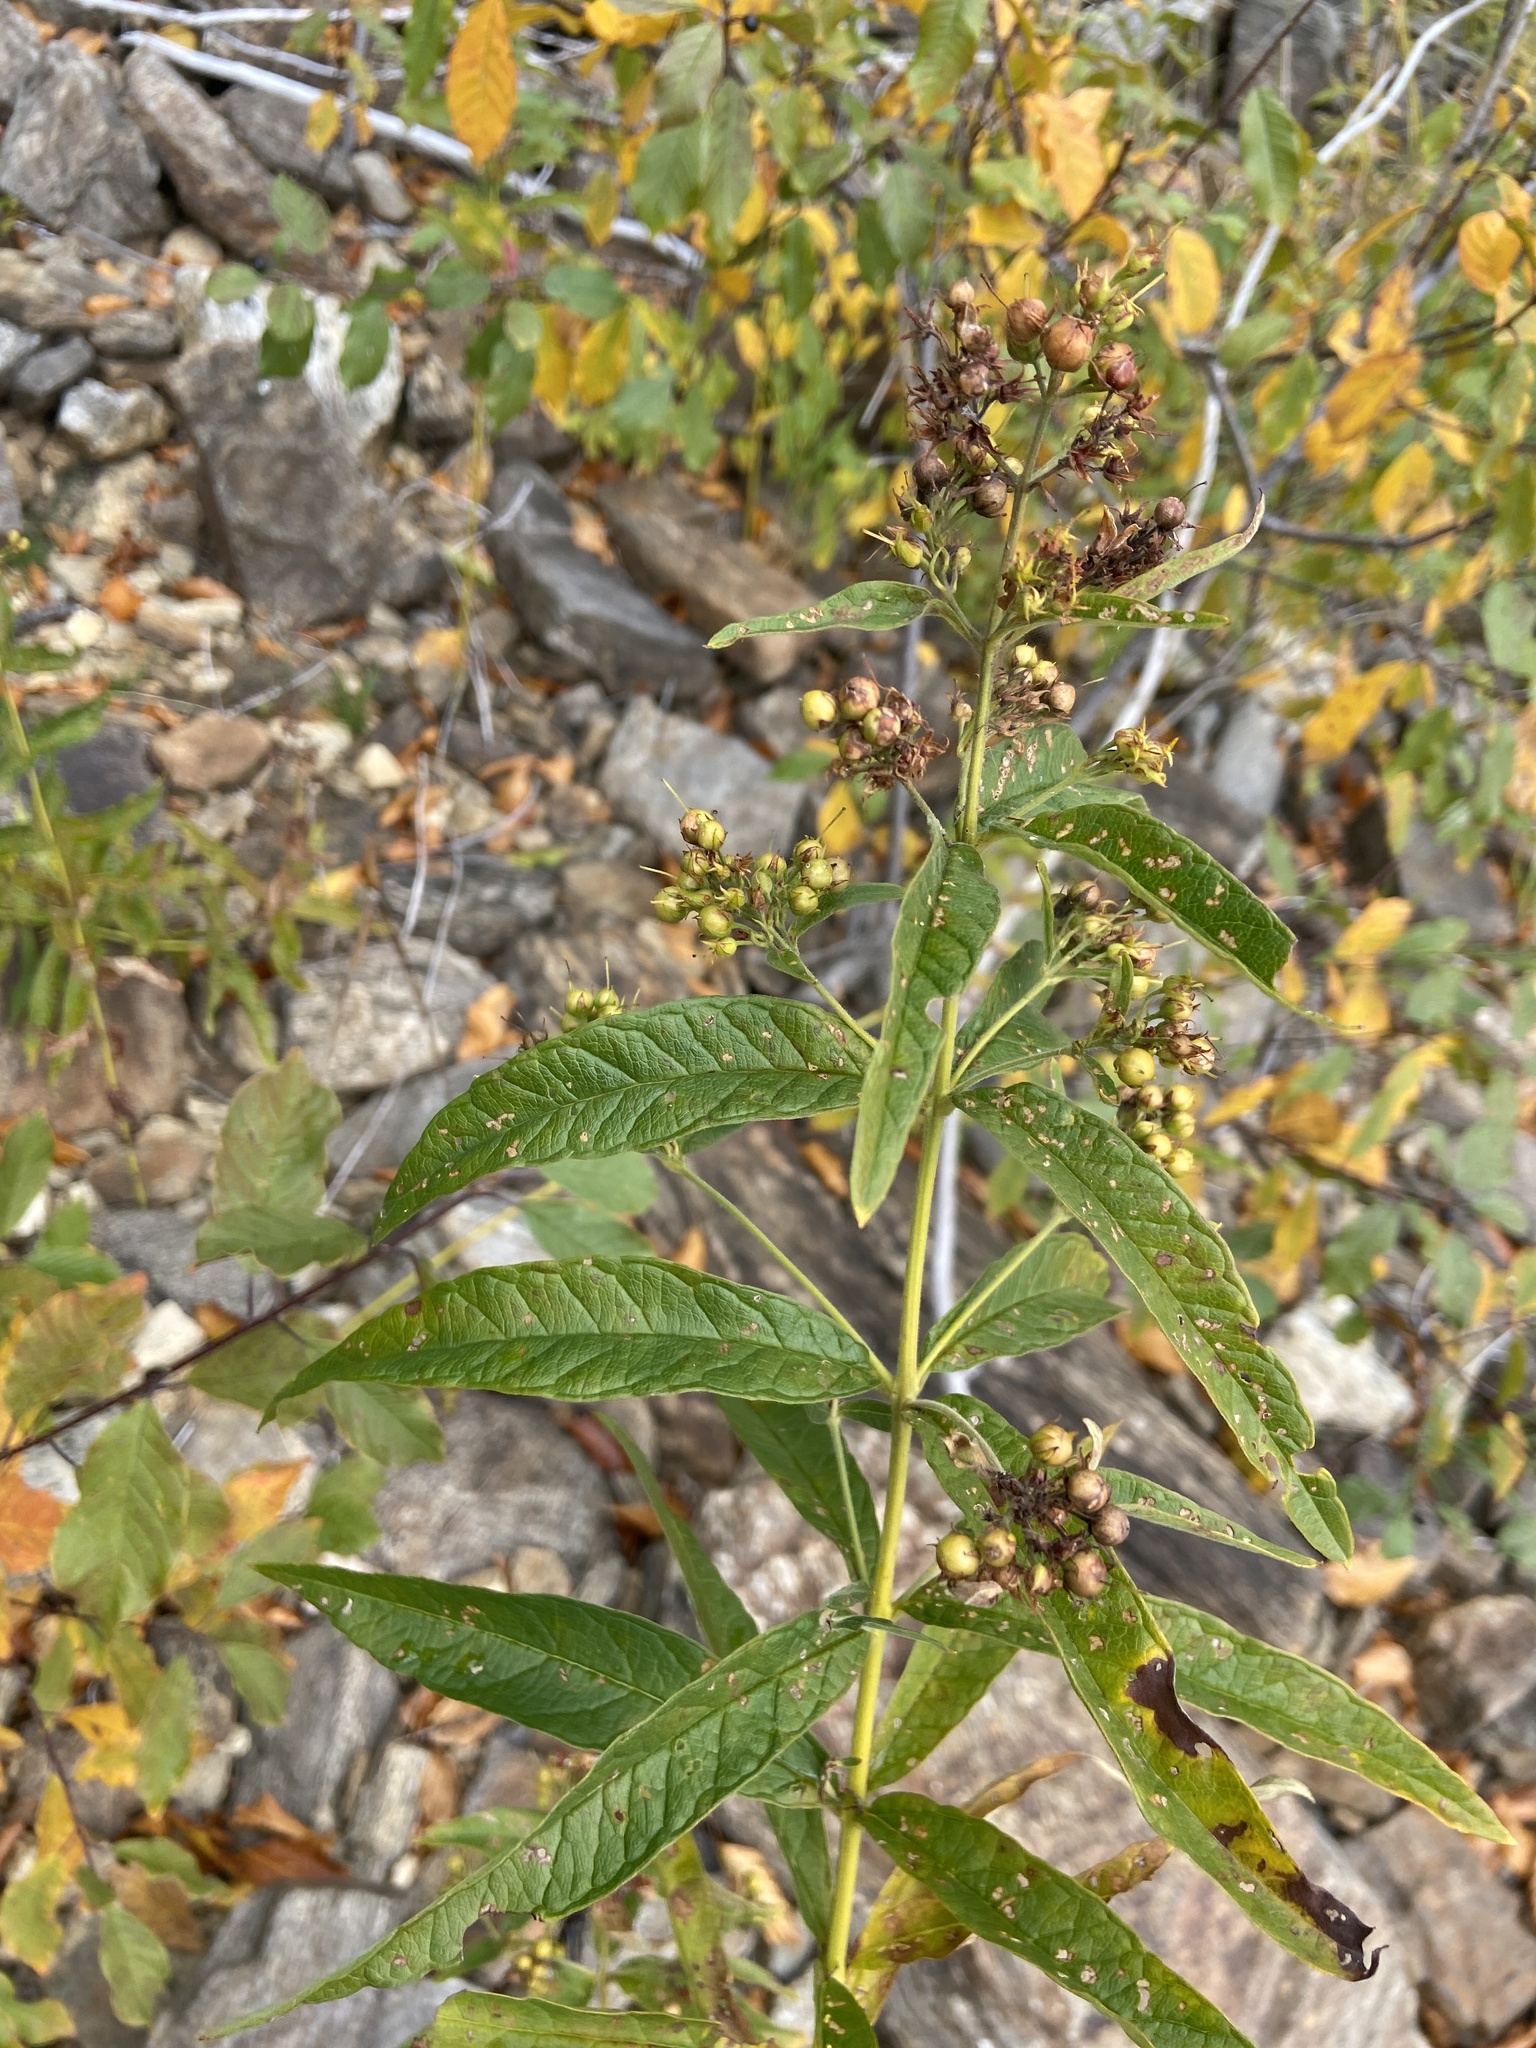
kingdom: Plantae
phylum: Tracheophyta
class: Magnoliopsida
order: Ericales
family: Primulaceae
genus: Lysimachia
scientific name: Lysimachia vulgaris
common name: Yellow loosestrife
